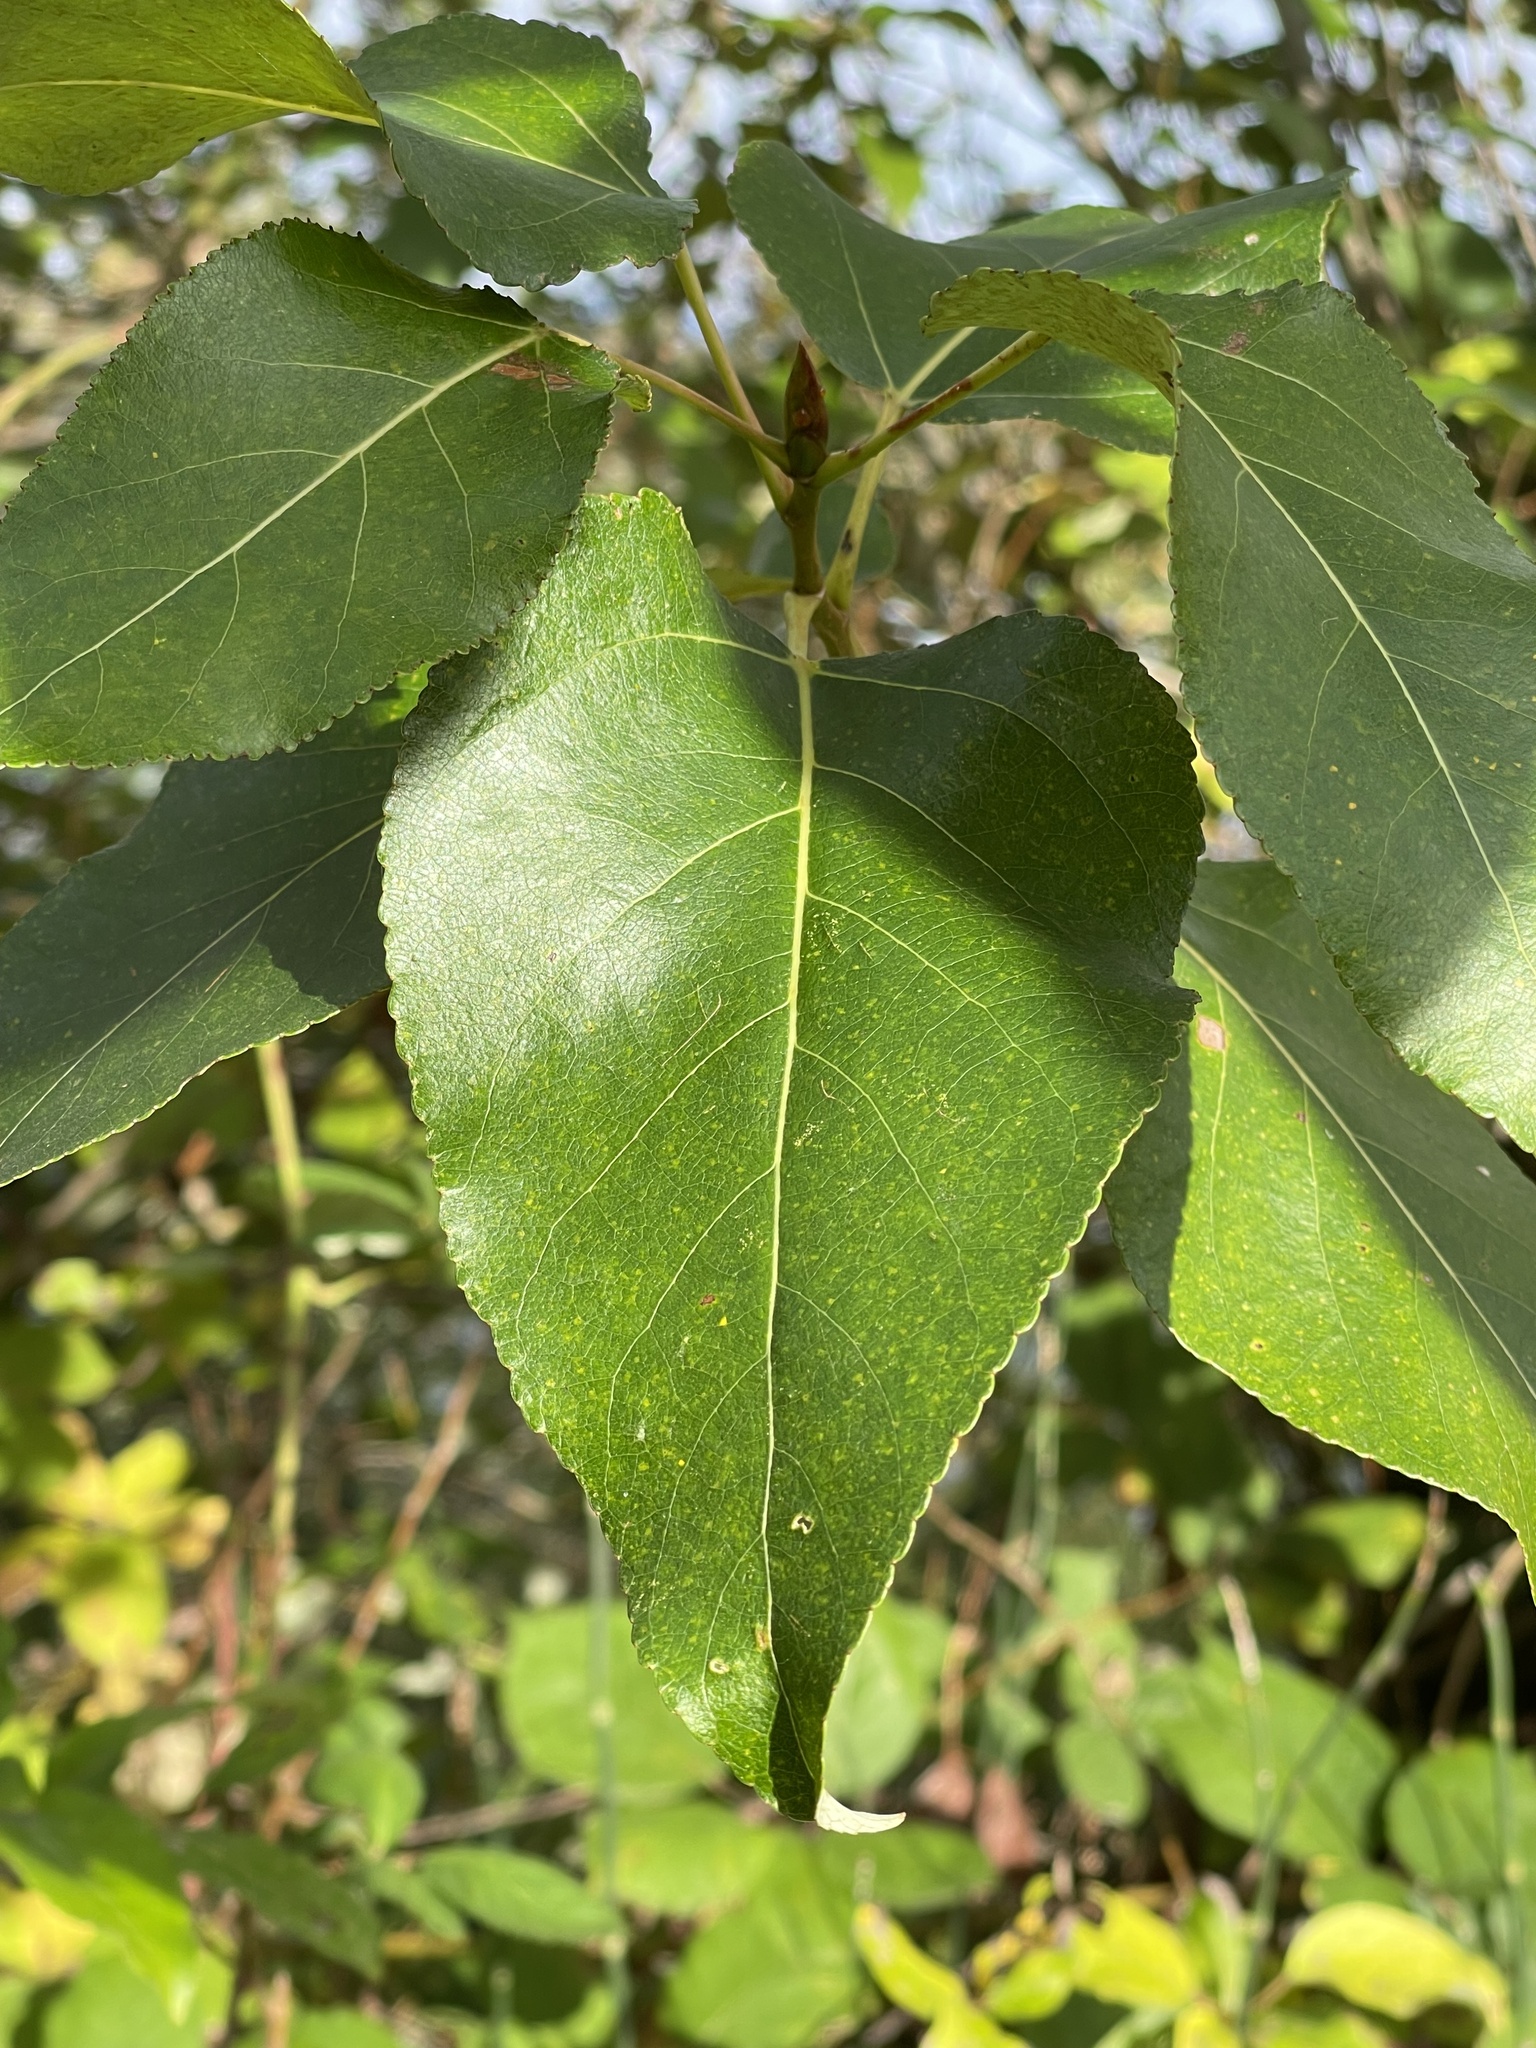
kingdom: Plantae
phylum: Tracheophyta
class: Magnoliopsida
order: Malpighiales
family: Salicaceae
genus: Populus
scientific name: Populus trichocarpa
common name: Black cottonwood
